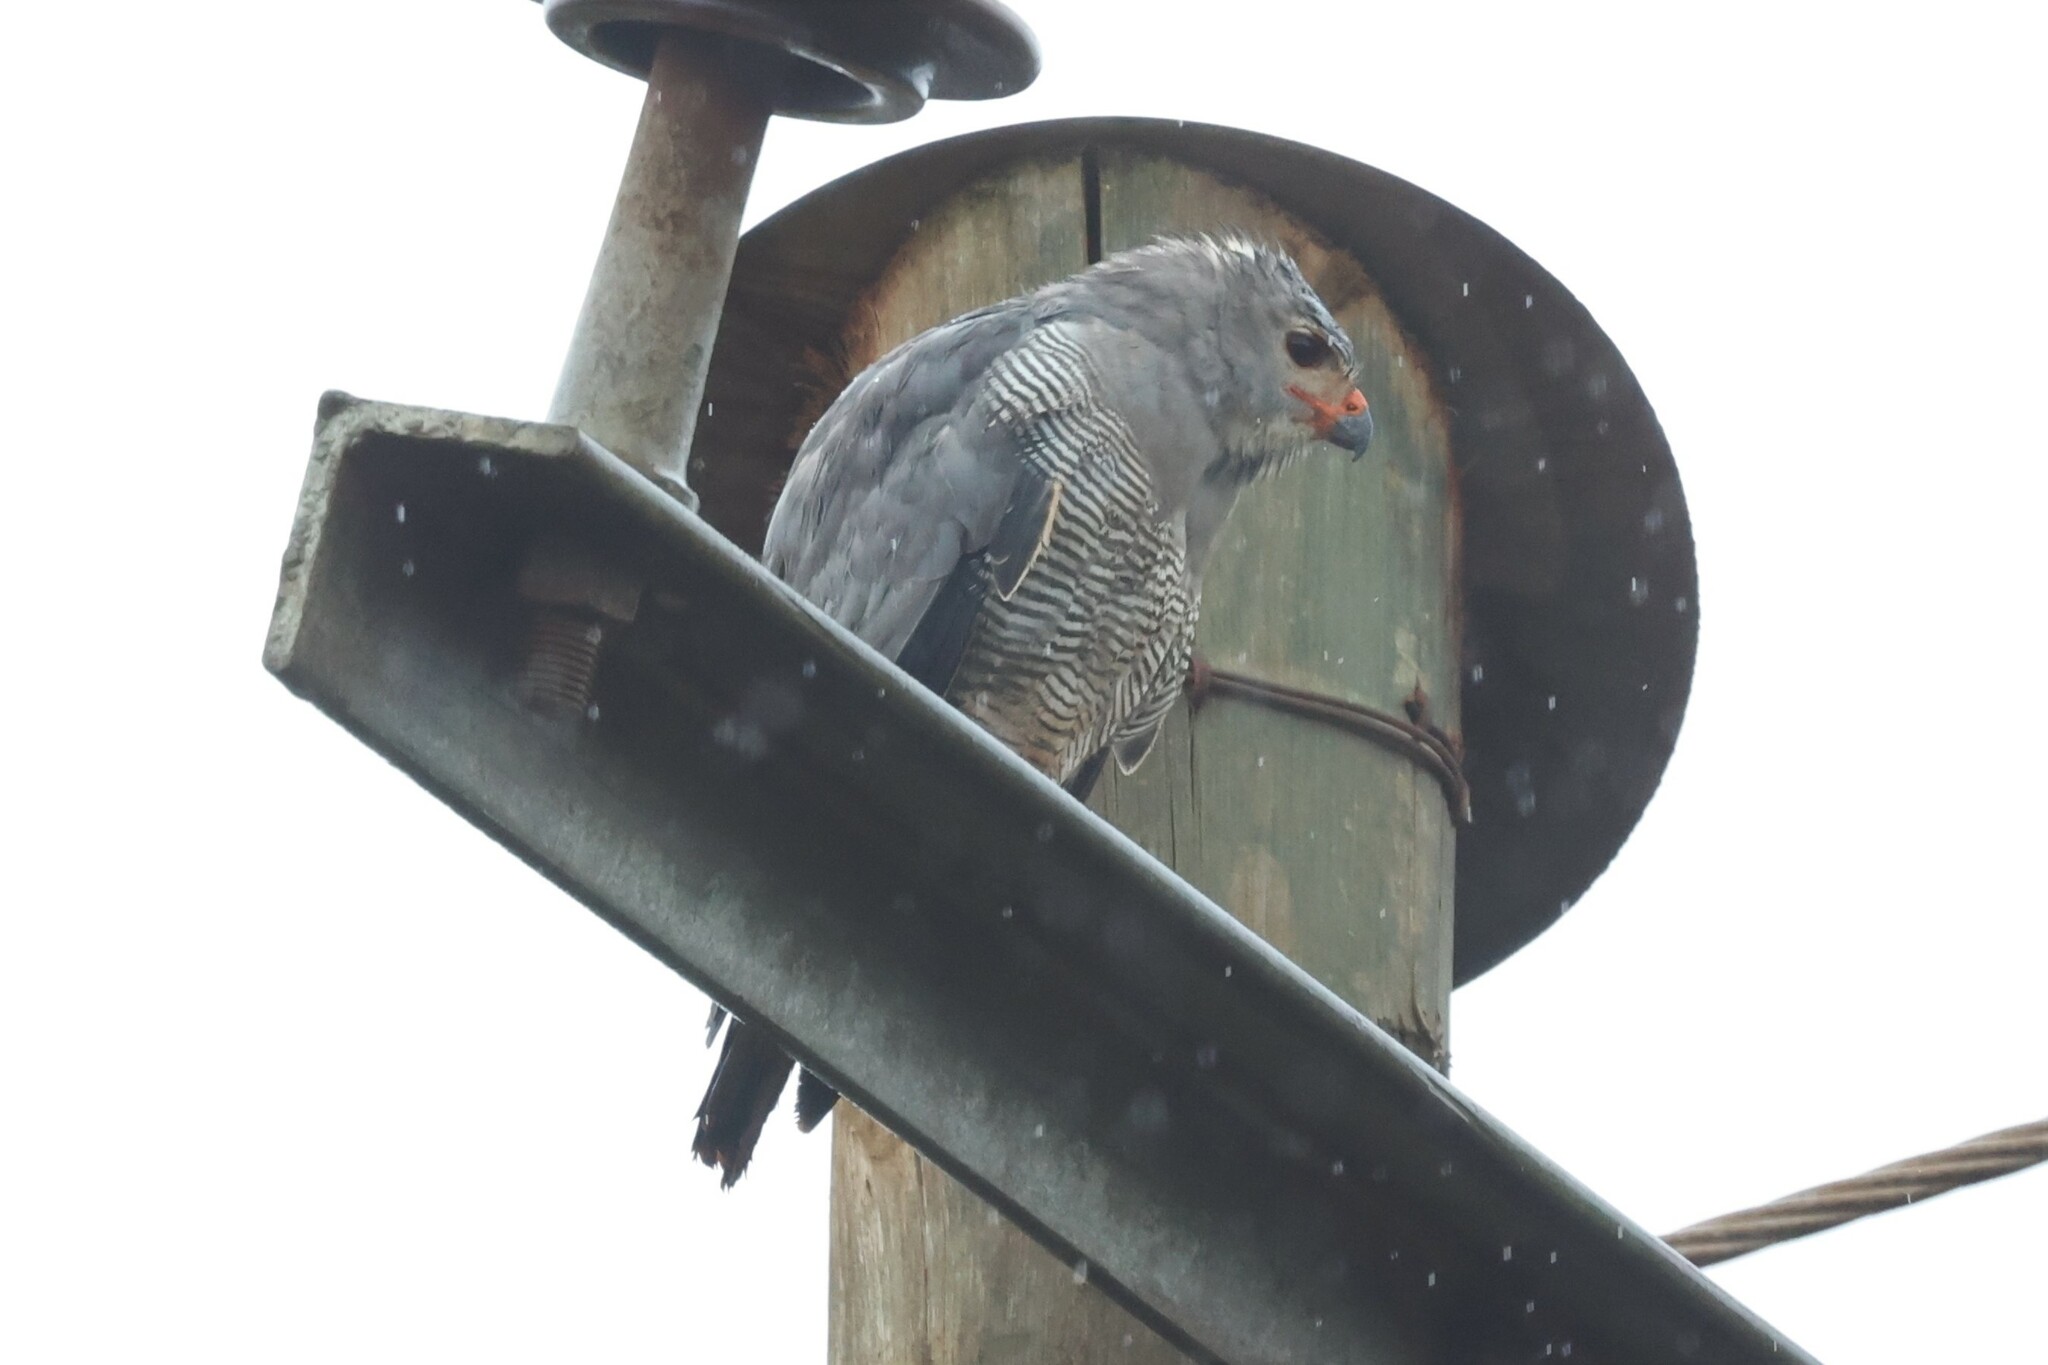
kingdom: Animalia
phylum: Chordata
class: Aves
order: Accipitriformes
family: Accipitridae
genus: Kaupifalco
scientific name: Kaupifalco monogrammicus
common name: Lizard buzzard
